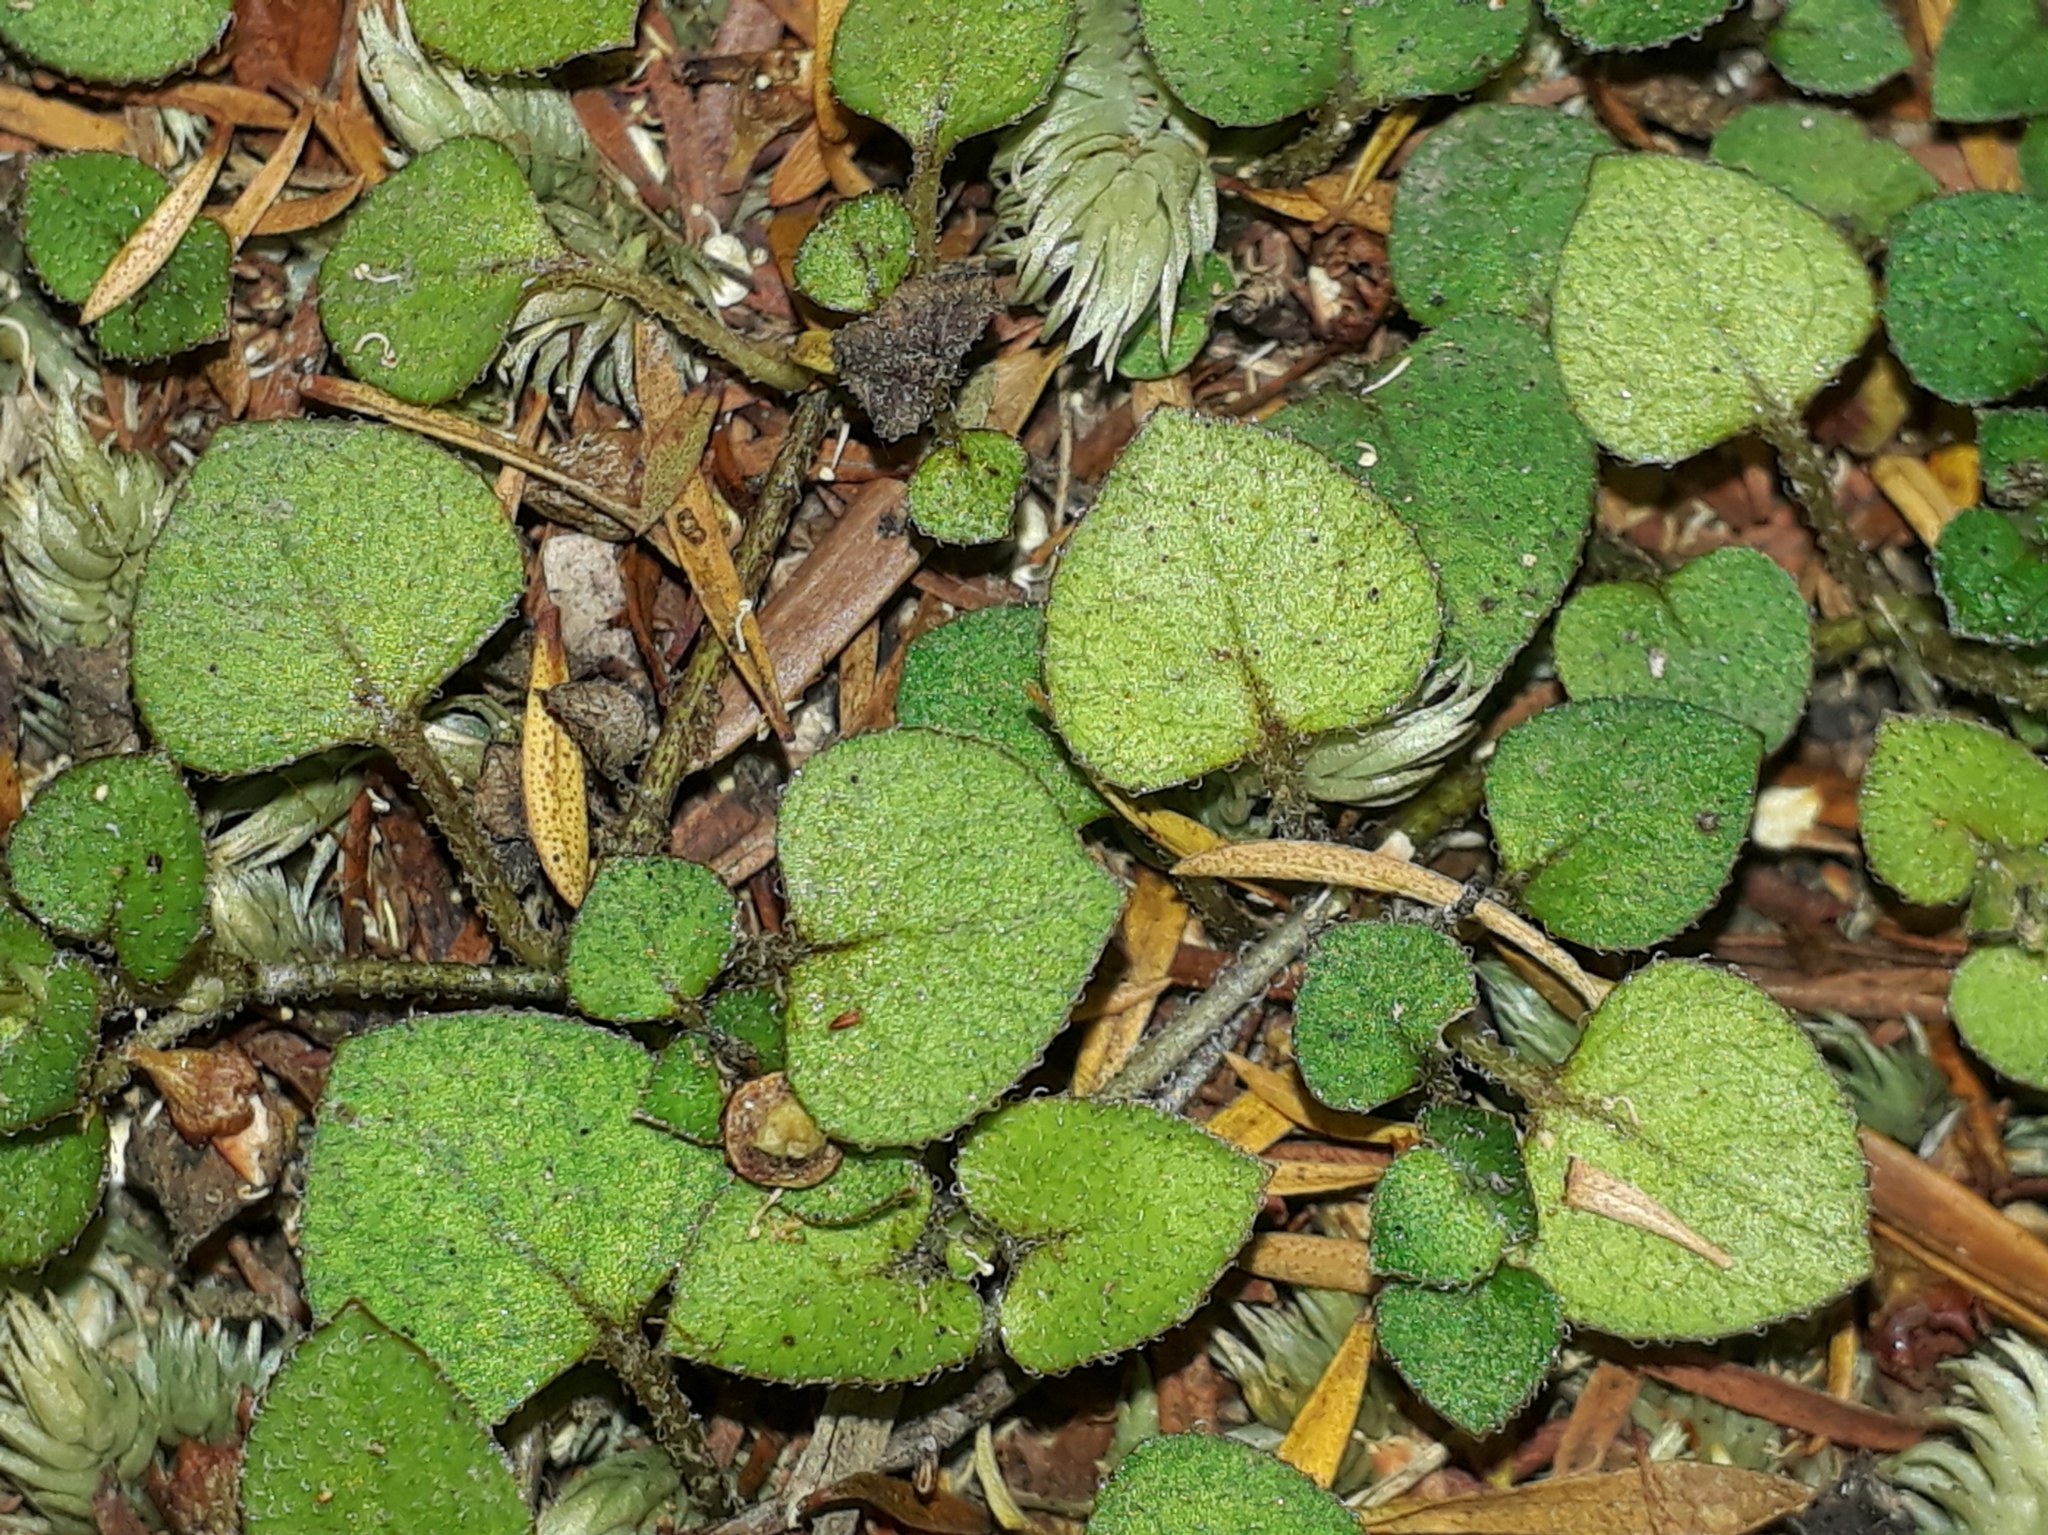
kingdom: Plantae
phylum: Tracheophyta
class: Magnoliopsida
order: Gentianales
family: Rubiaceae
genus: Nertera
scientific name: Nertera dichondrifolia
